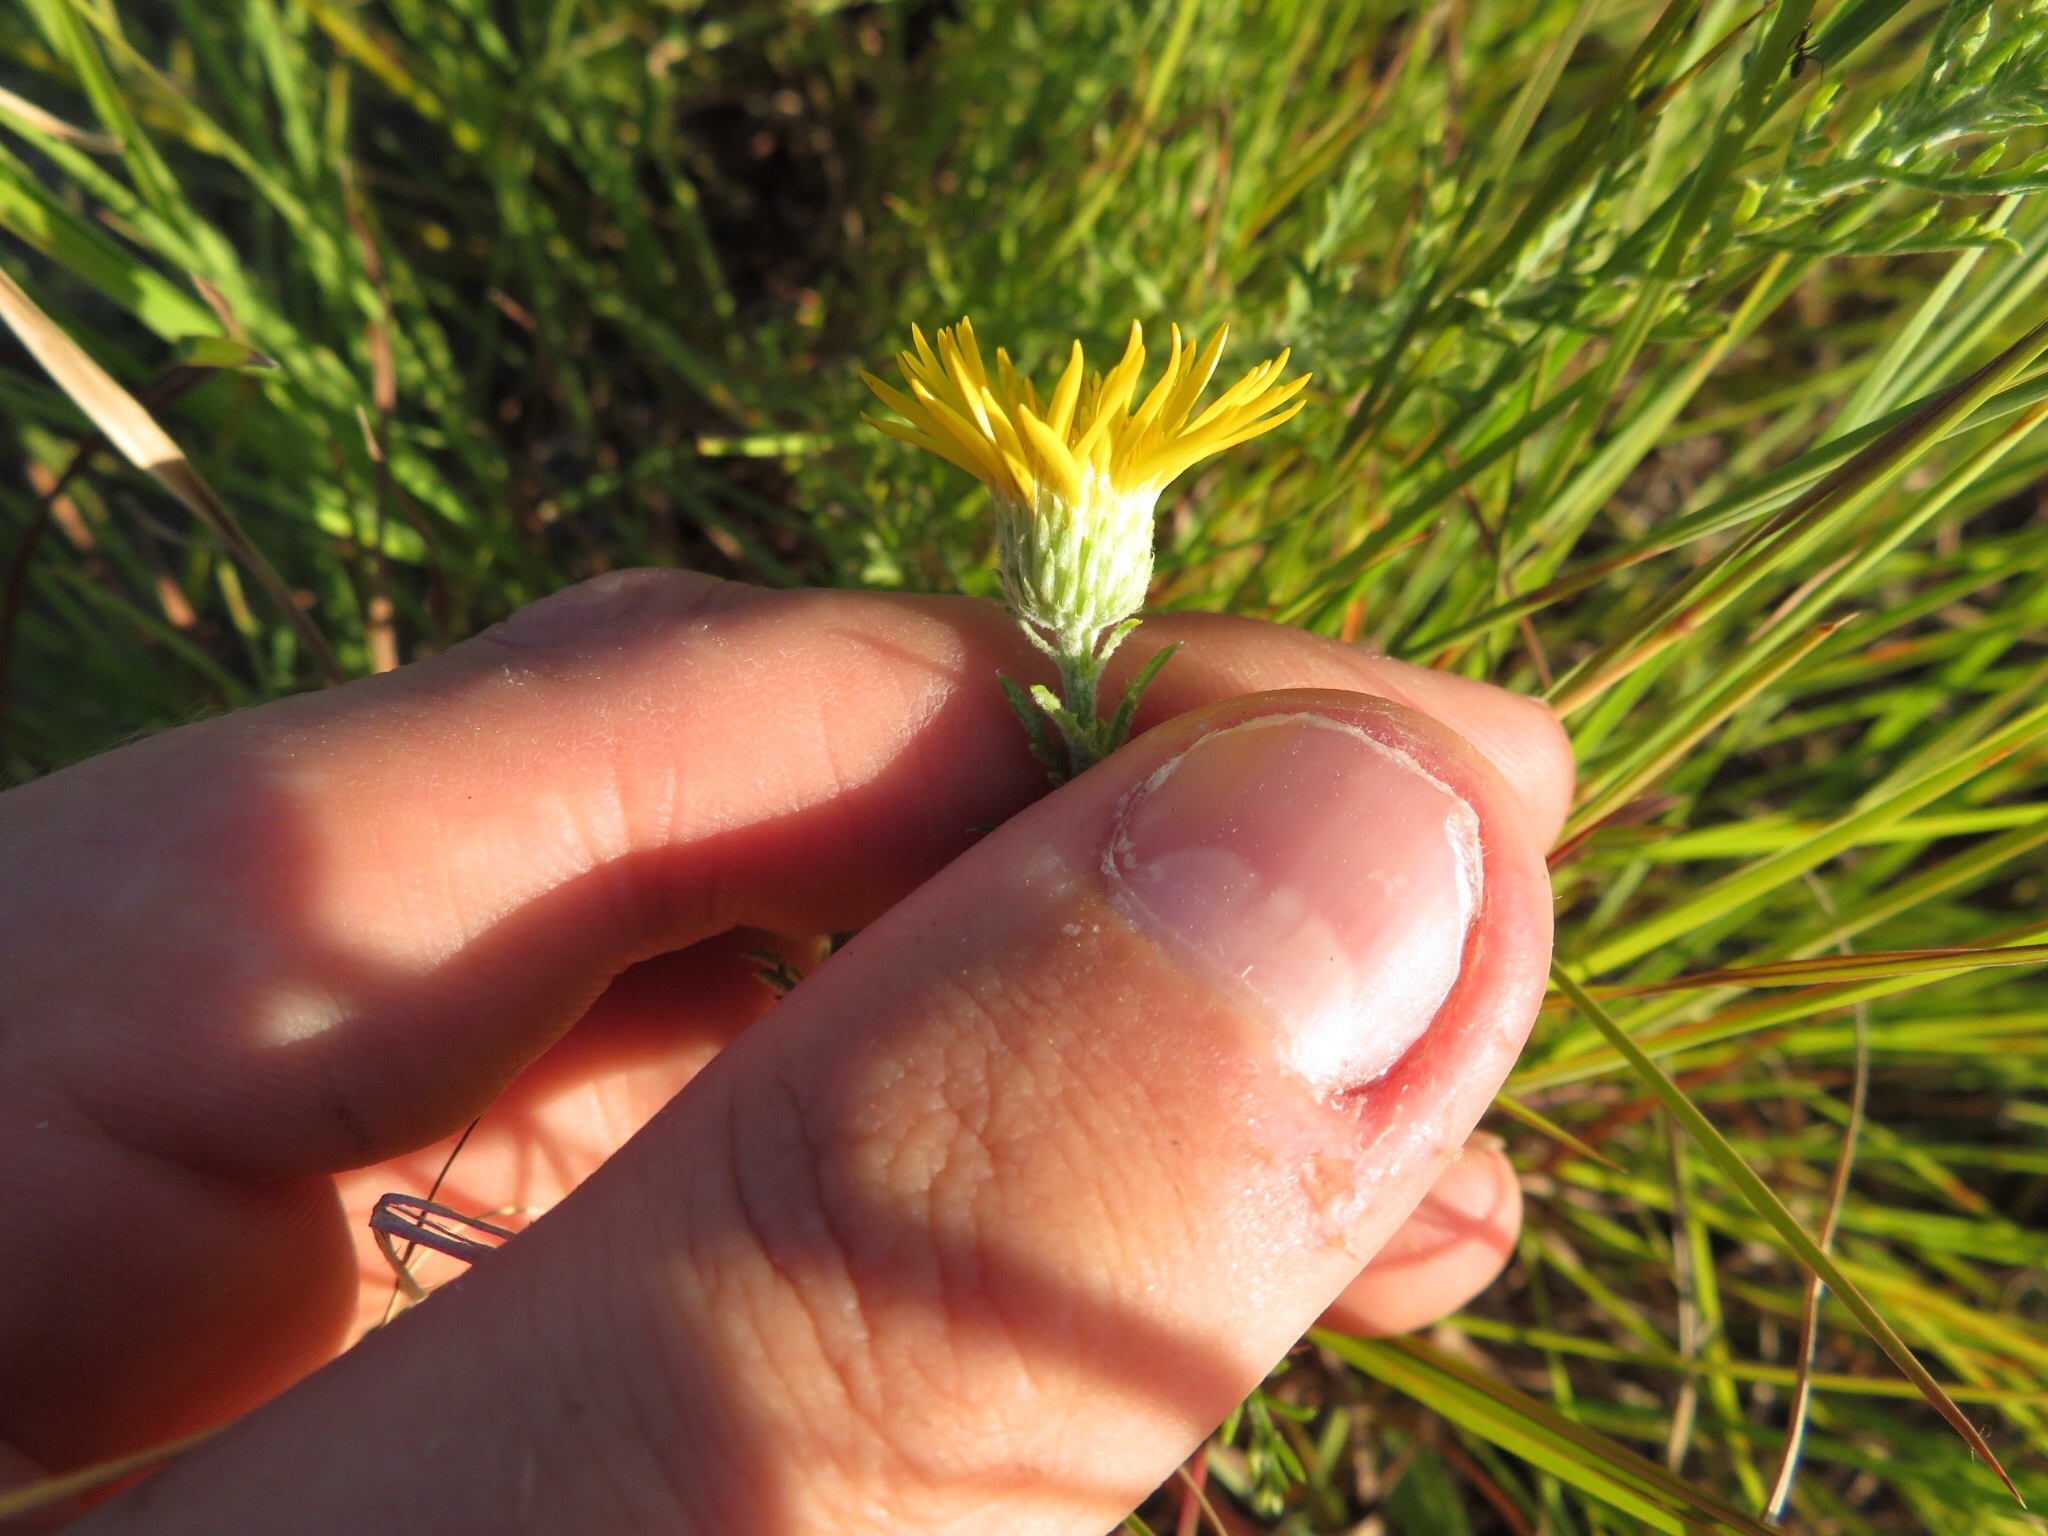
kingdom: Plantae
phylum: Tracheophyta
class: Magnoliopsida
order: Asterales
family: Asteraceae
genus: Xanthisma
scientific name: Xanthisma spinulosum
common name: Spiny goldenweed
